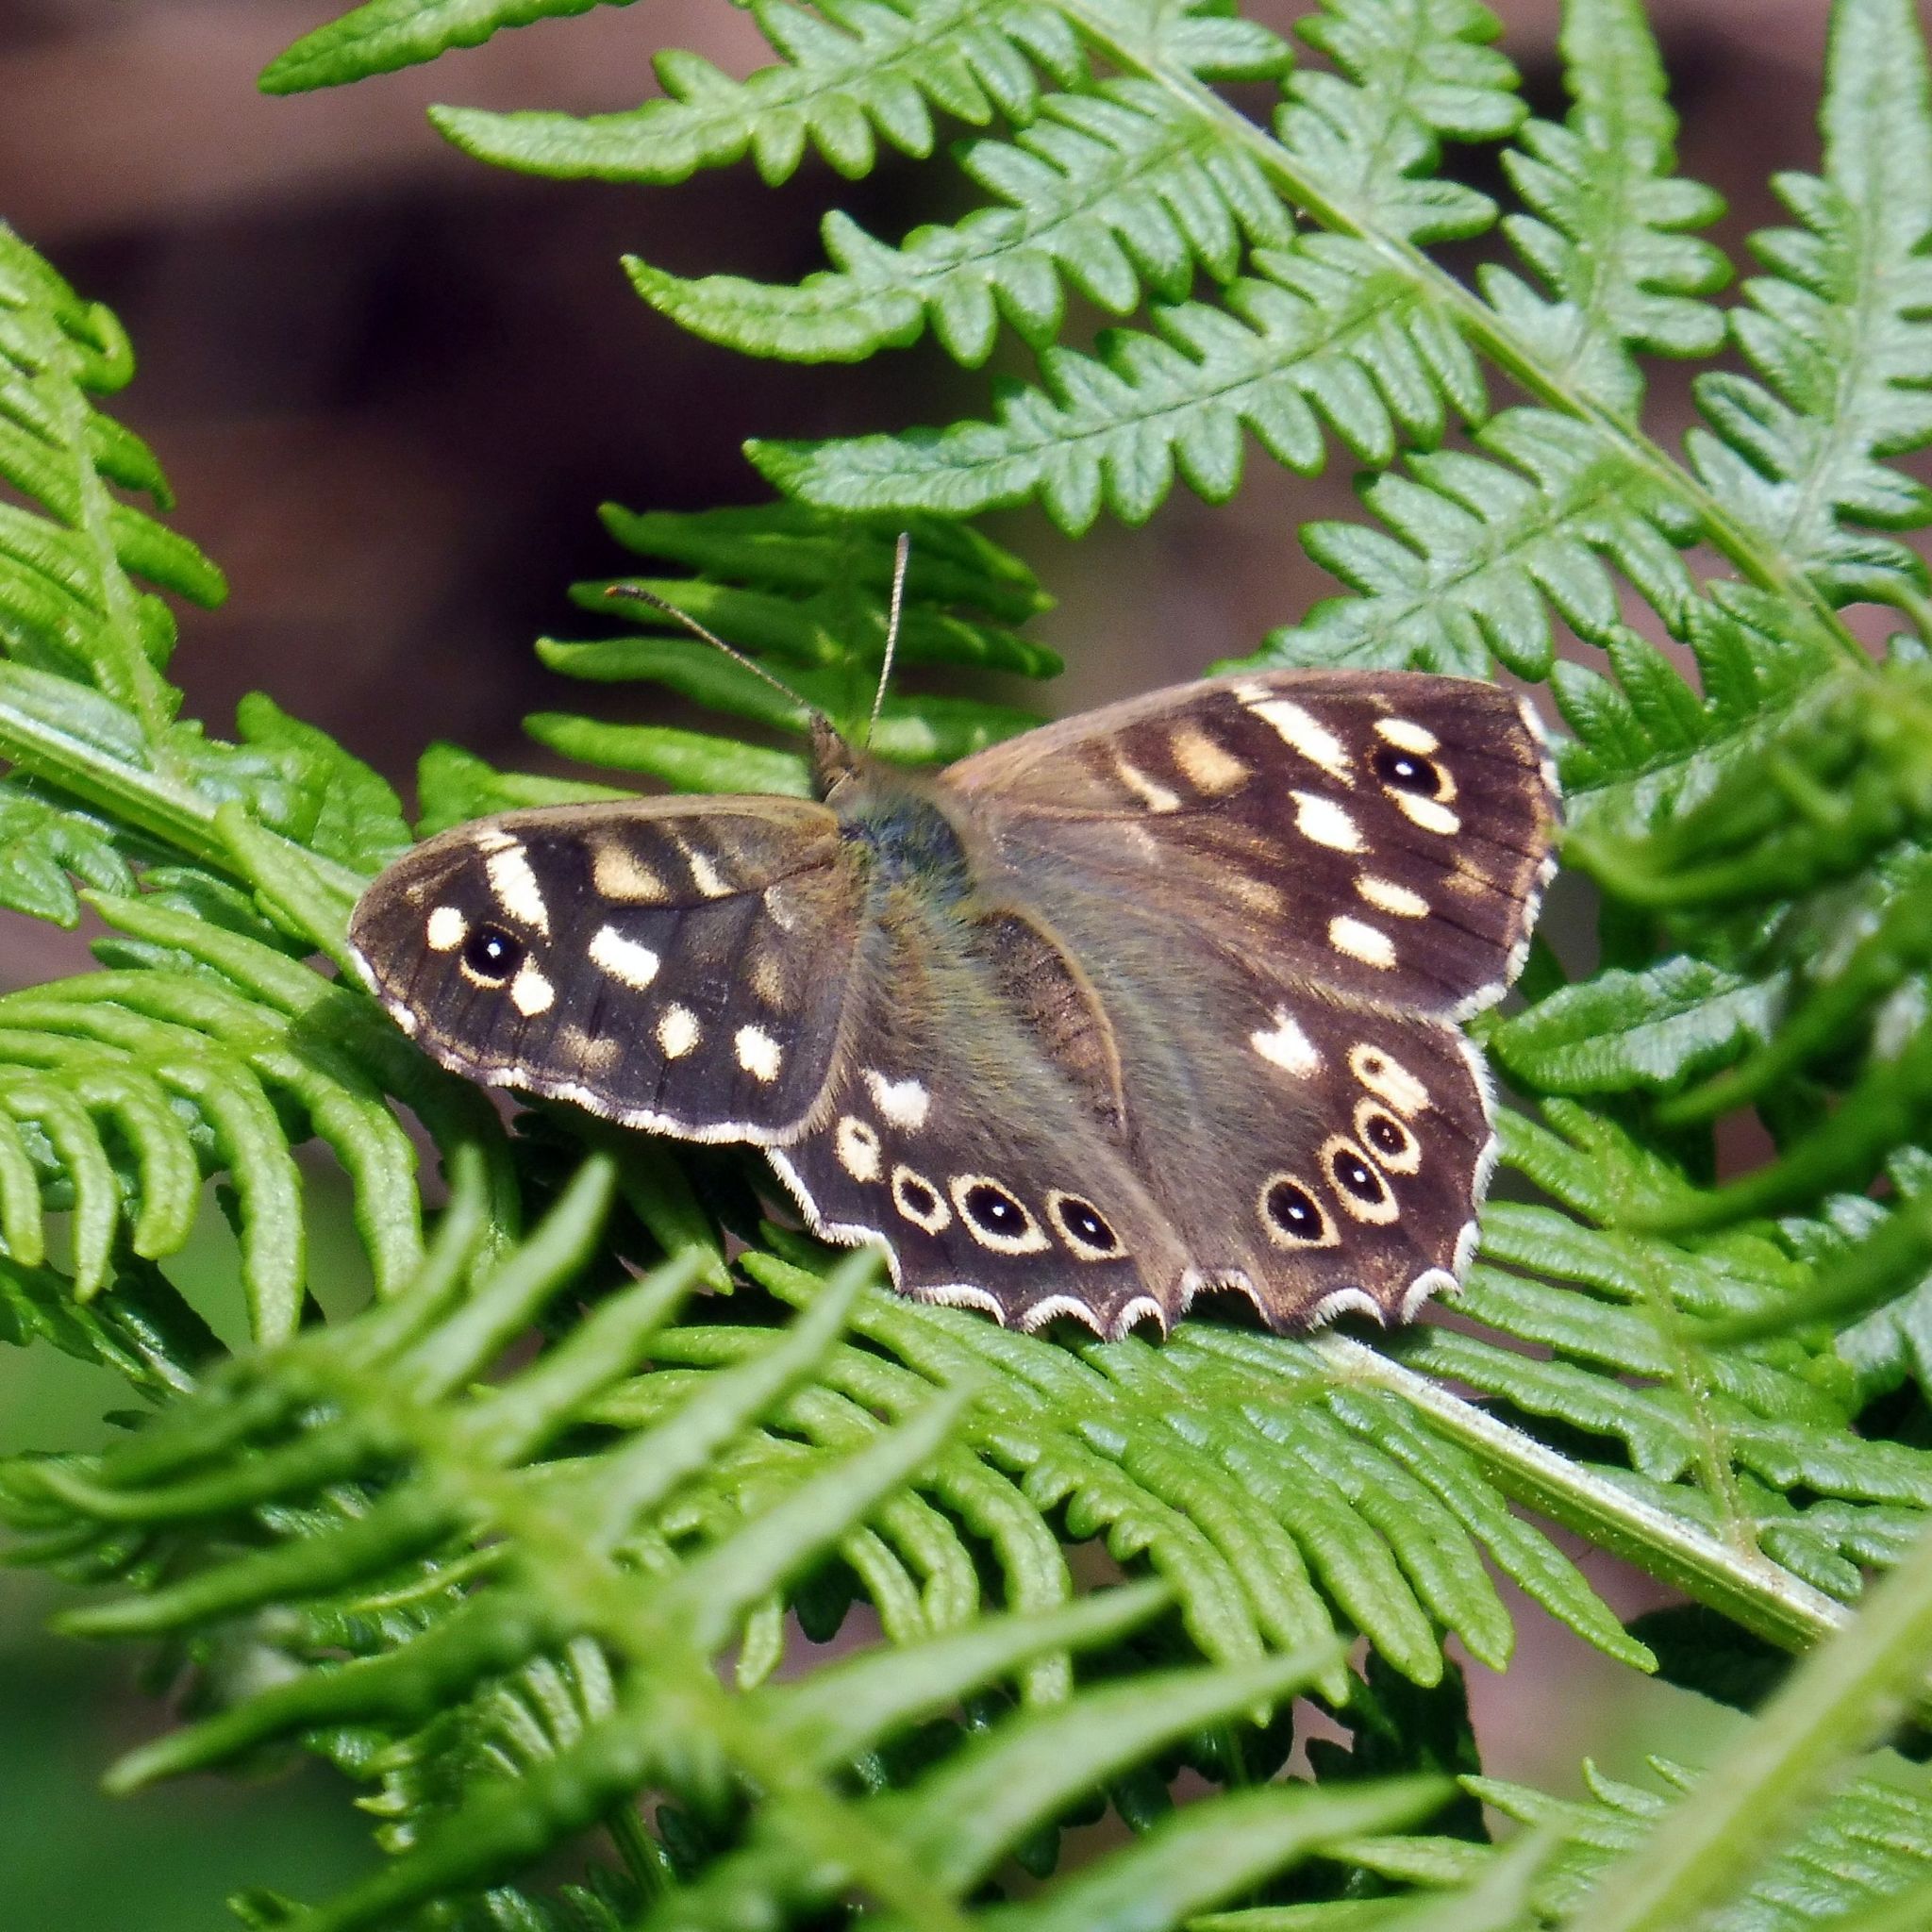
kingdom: Animalia
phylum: Arthropoda
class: Insecta
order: Lepidoptera
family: Nymphalidae
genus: Pararge
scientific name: Pararge aegeria
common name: Speckled wood
